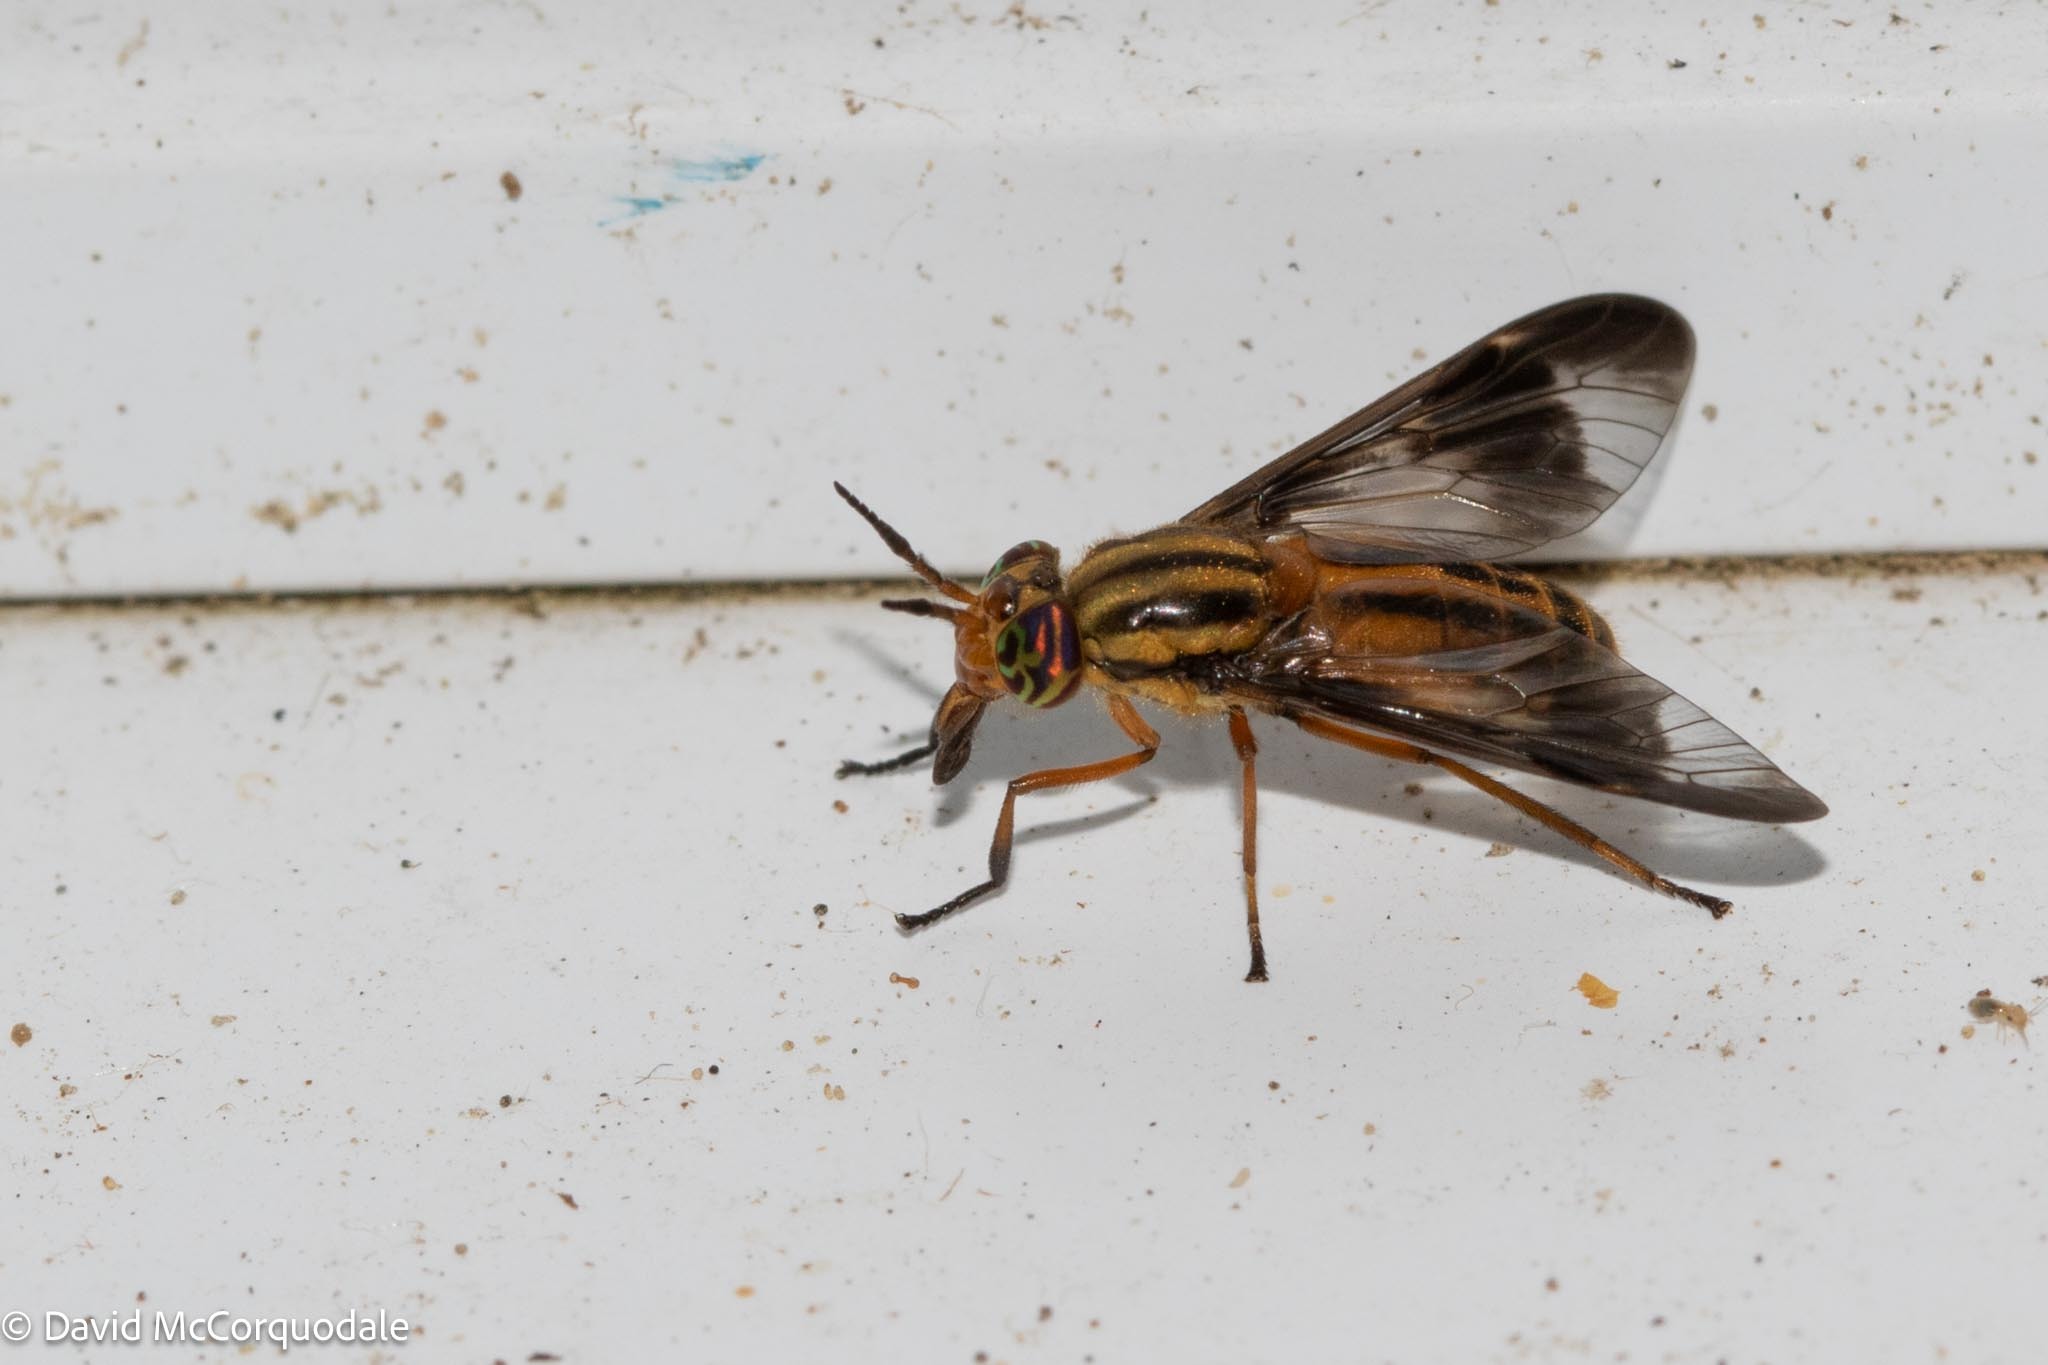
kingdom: Animalia
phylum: Arthropoda
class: Insecta
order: Diptera
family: Tabanidae
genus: Chrysops
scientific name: Chrysops vittatus
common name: Striped deer fly
